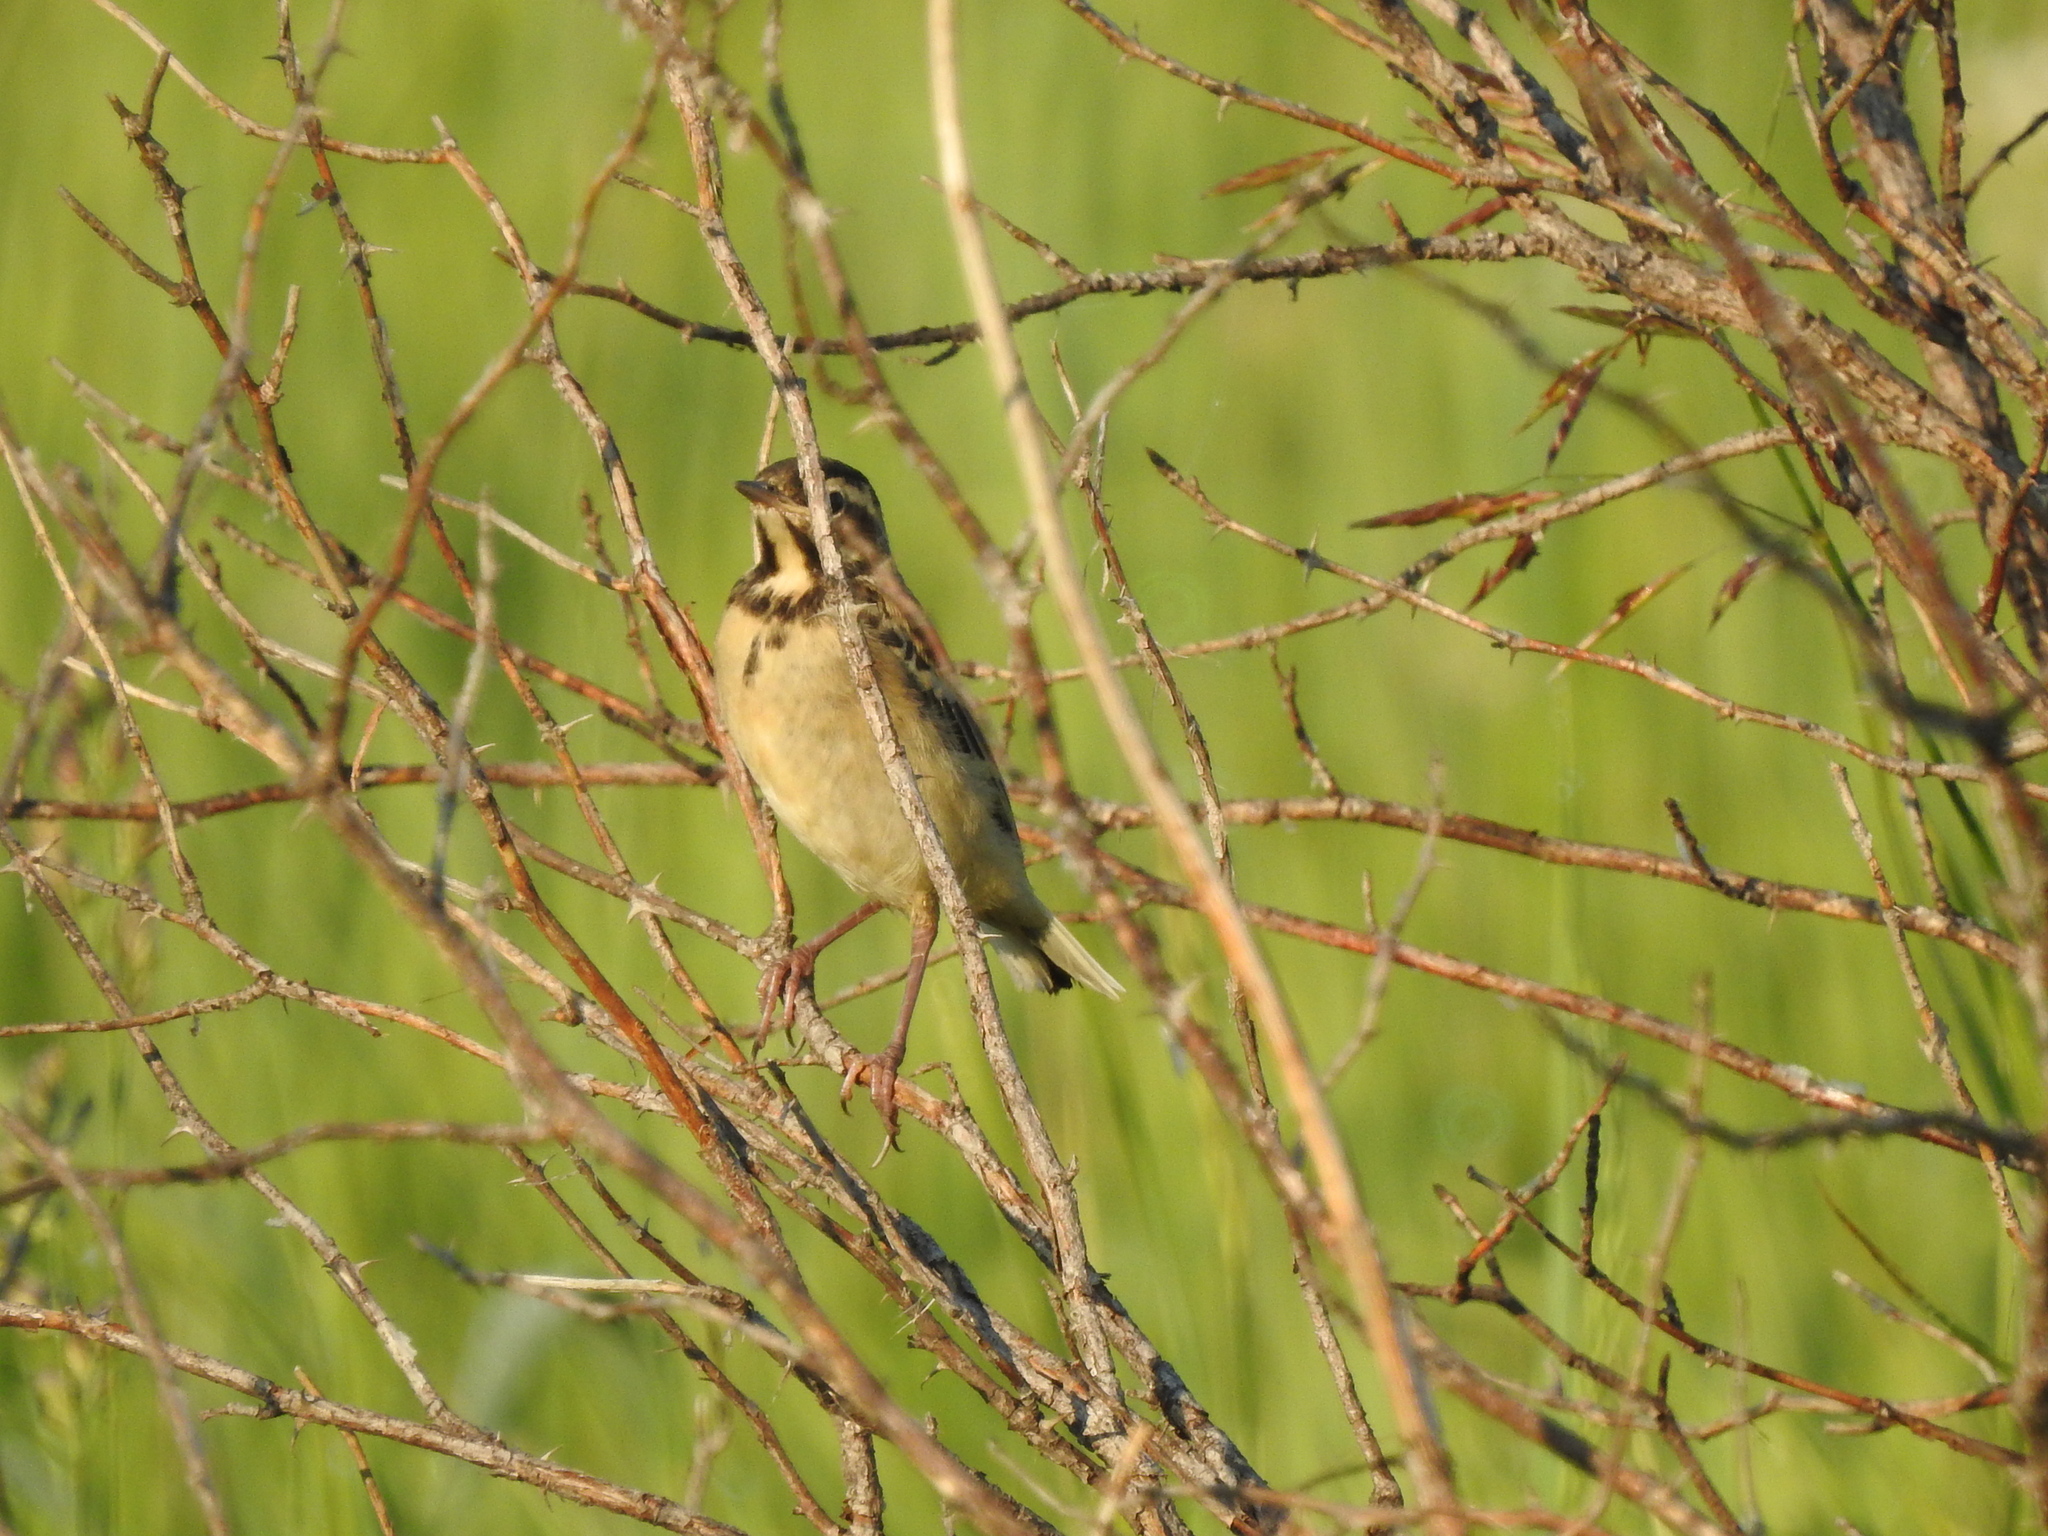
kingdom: Animalia
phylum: Chordata
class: Aves
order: Passeriformes
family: Motacillidae
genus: Motacilla
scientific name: Motacilla flava
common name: Western yellow wagtail
